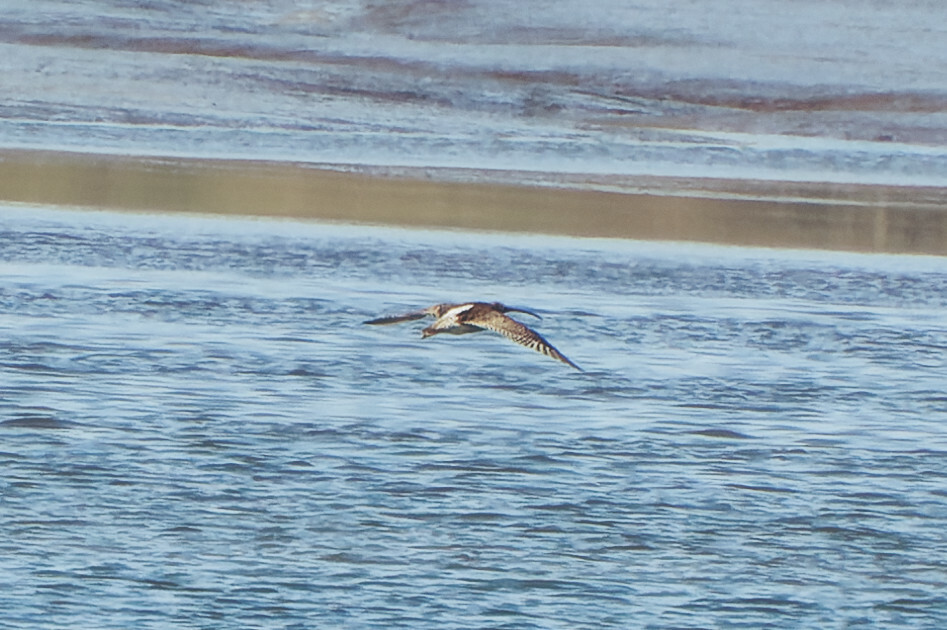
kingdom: Animalia
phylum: Chordata
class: Aves
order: Charadriiformes
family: Scolopacidae
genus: Numenius
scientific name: Numenius arquata
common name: Eurasian curlew
